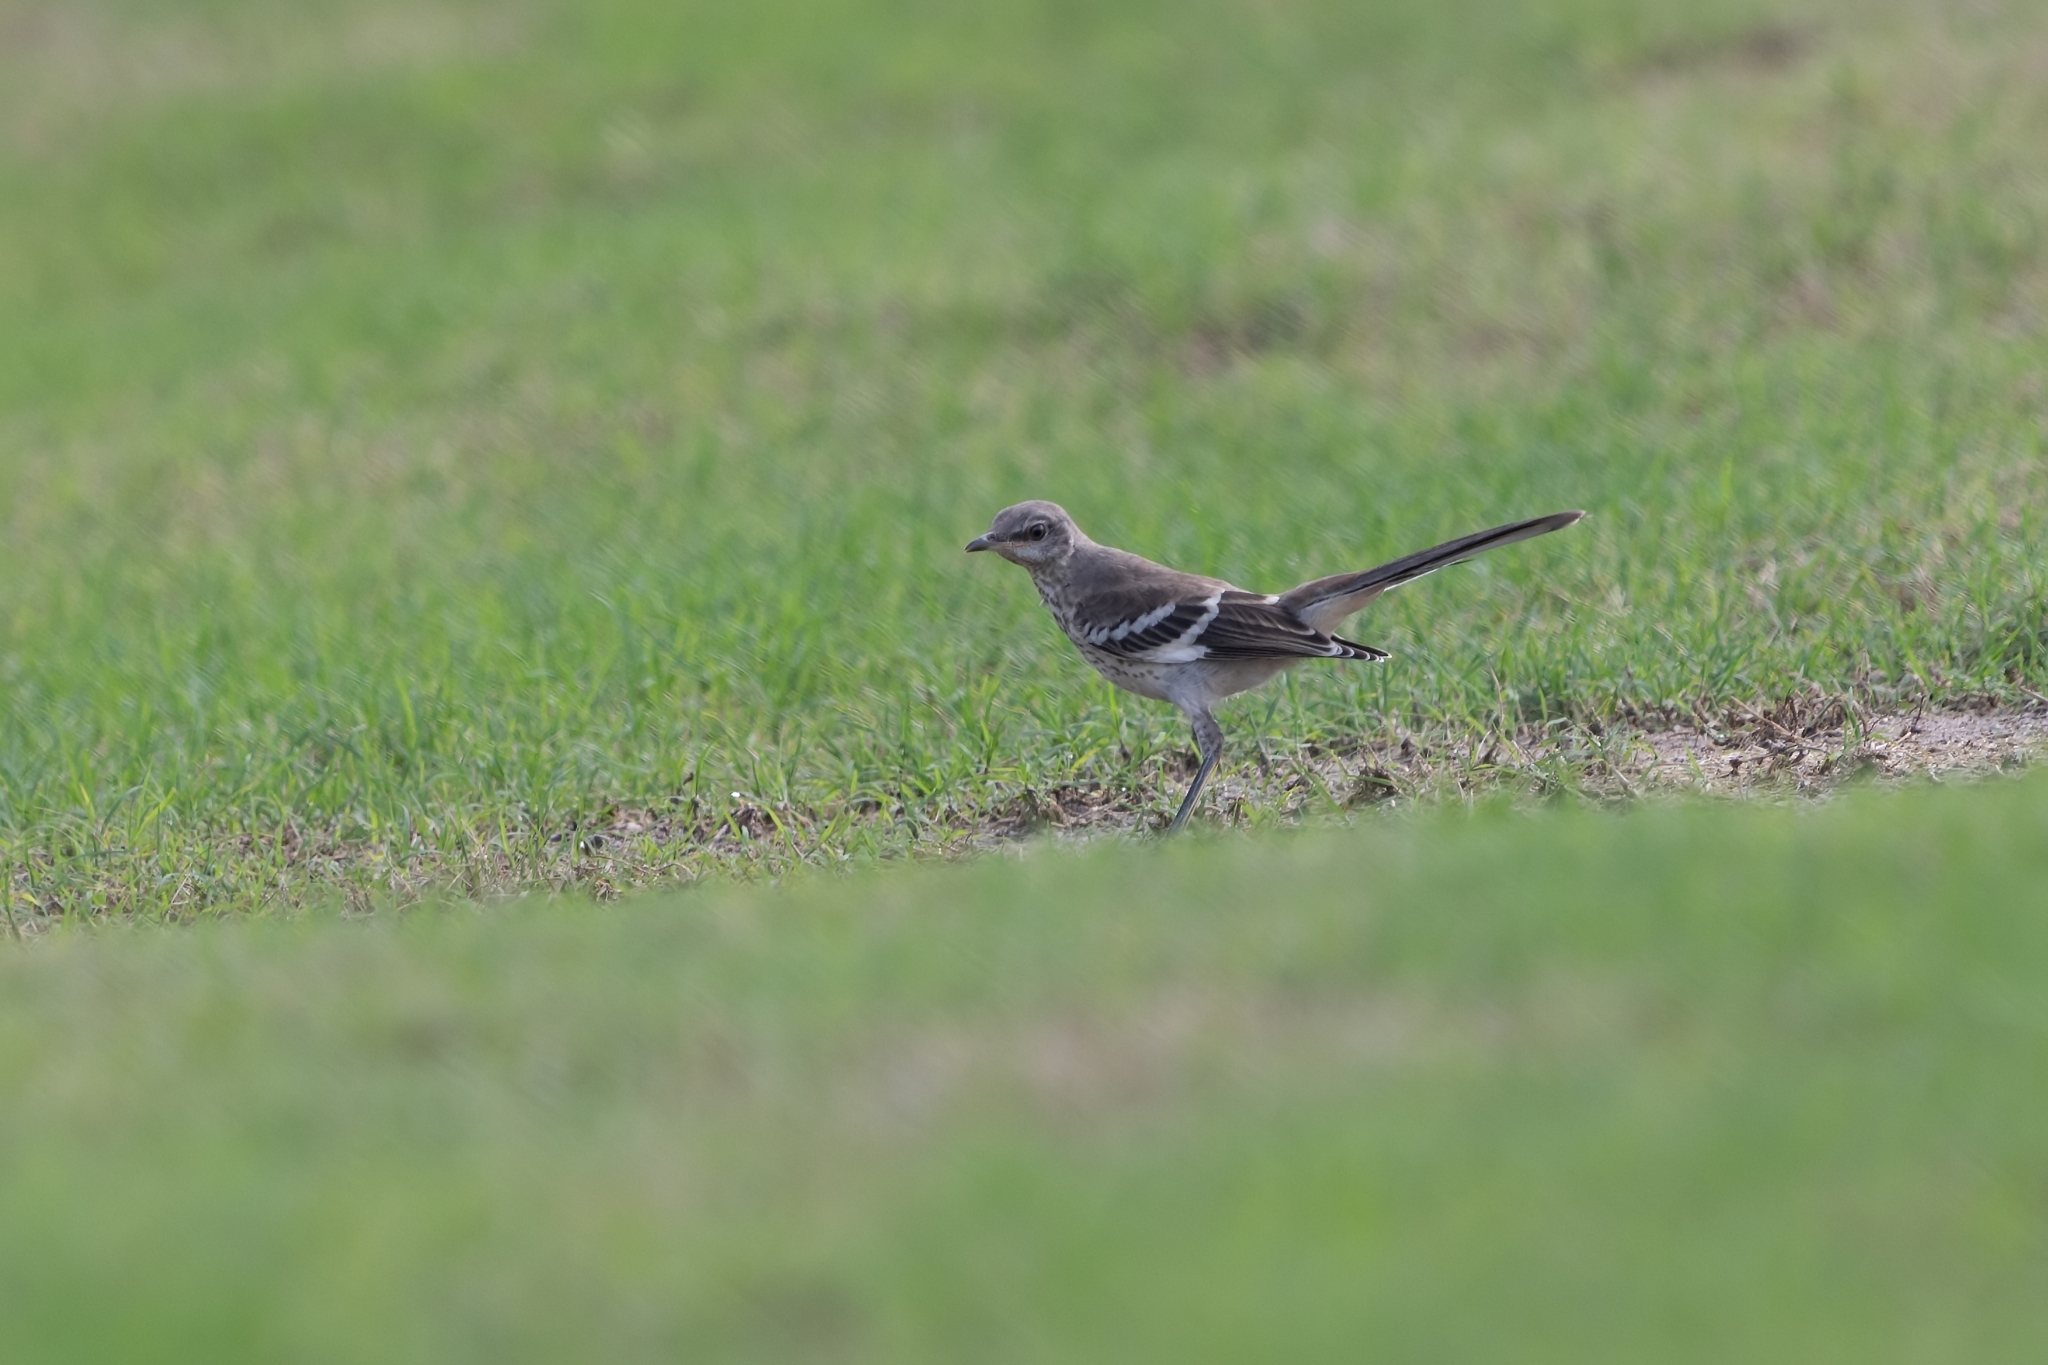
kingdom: Animalia
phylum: Chordata
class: Aves
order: Passeriformes
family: Mimidae
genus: Mimus
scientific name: Mimus polyglottos
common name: Northern mockingbird
